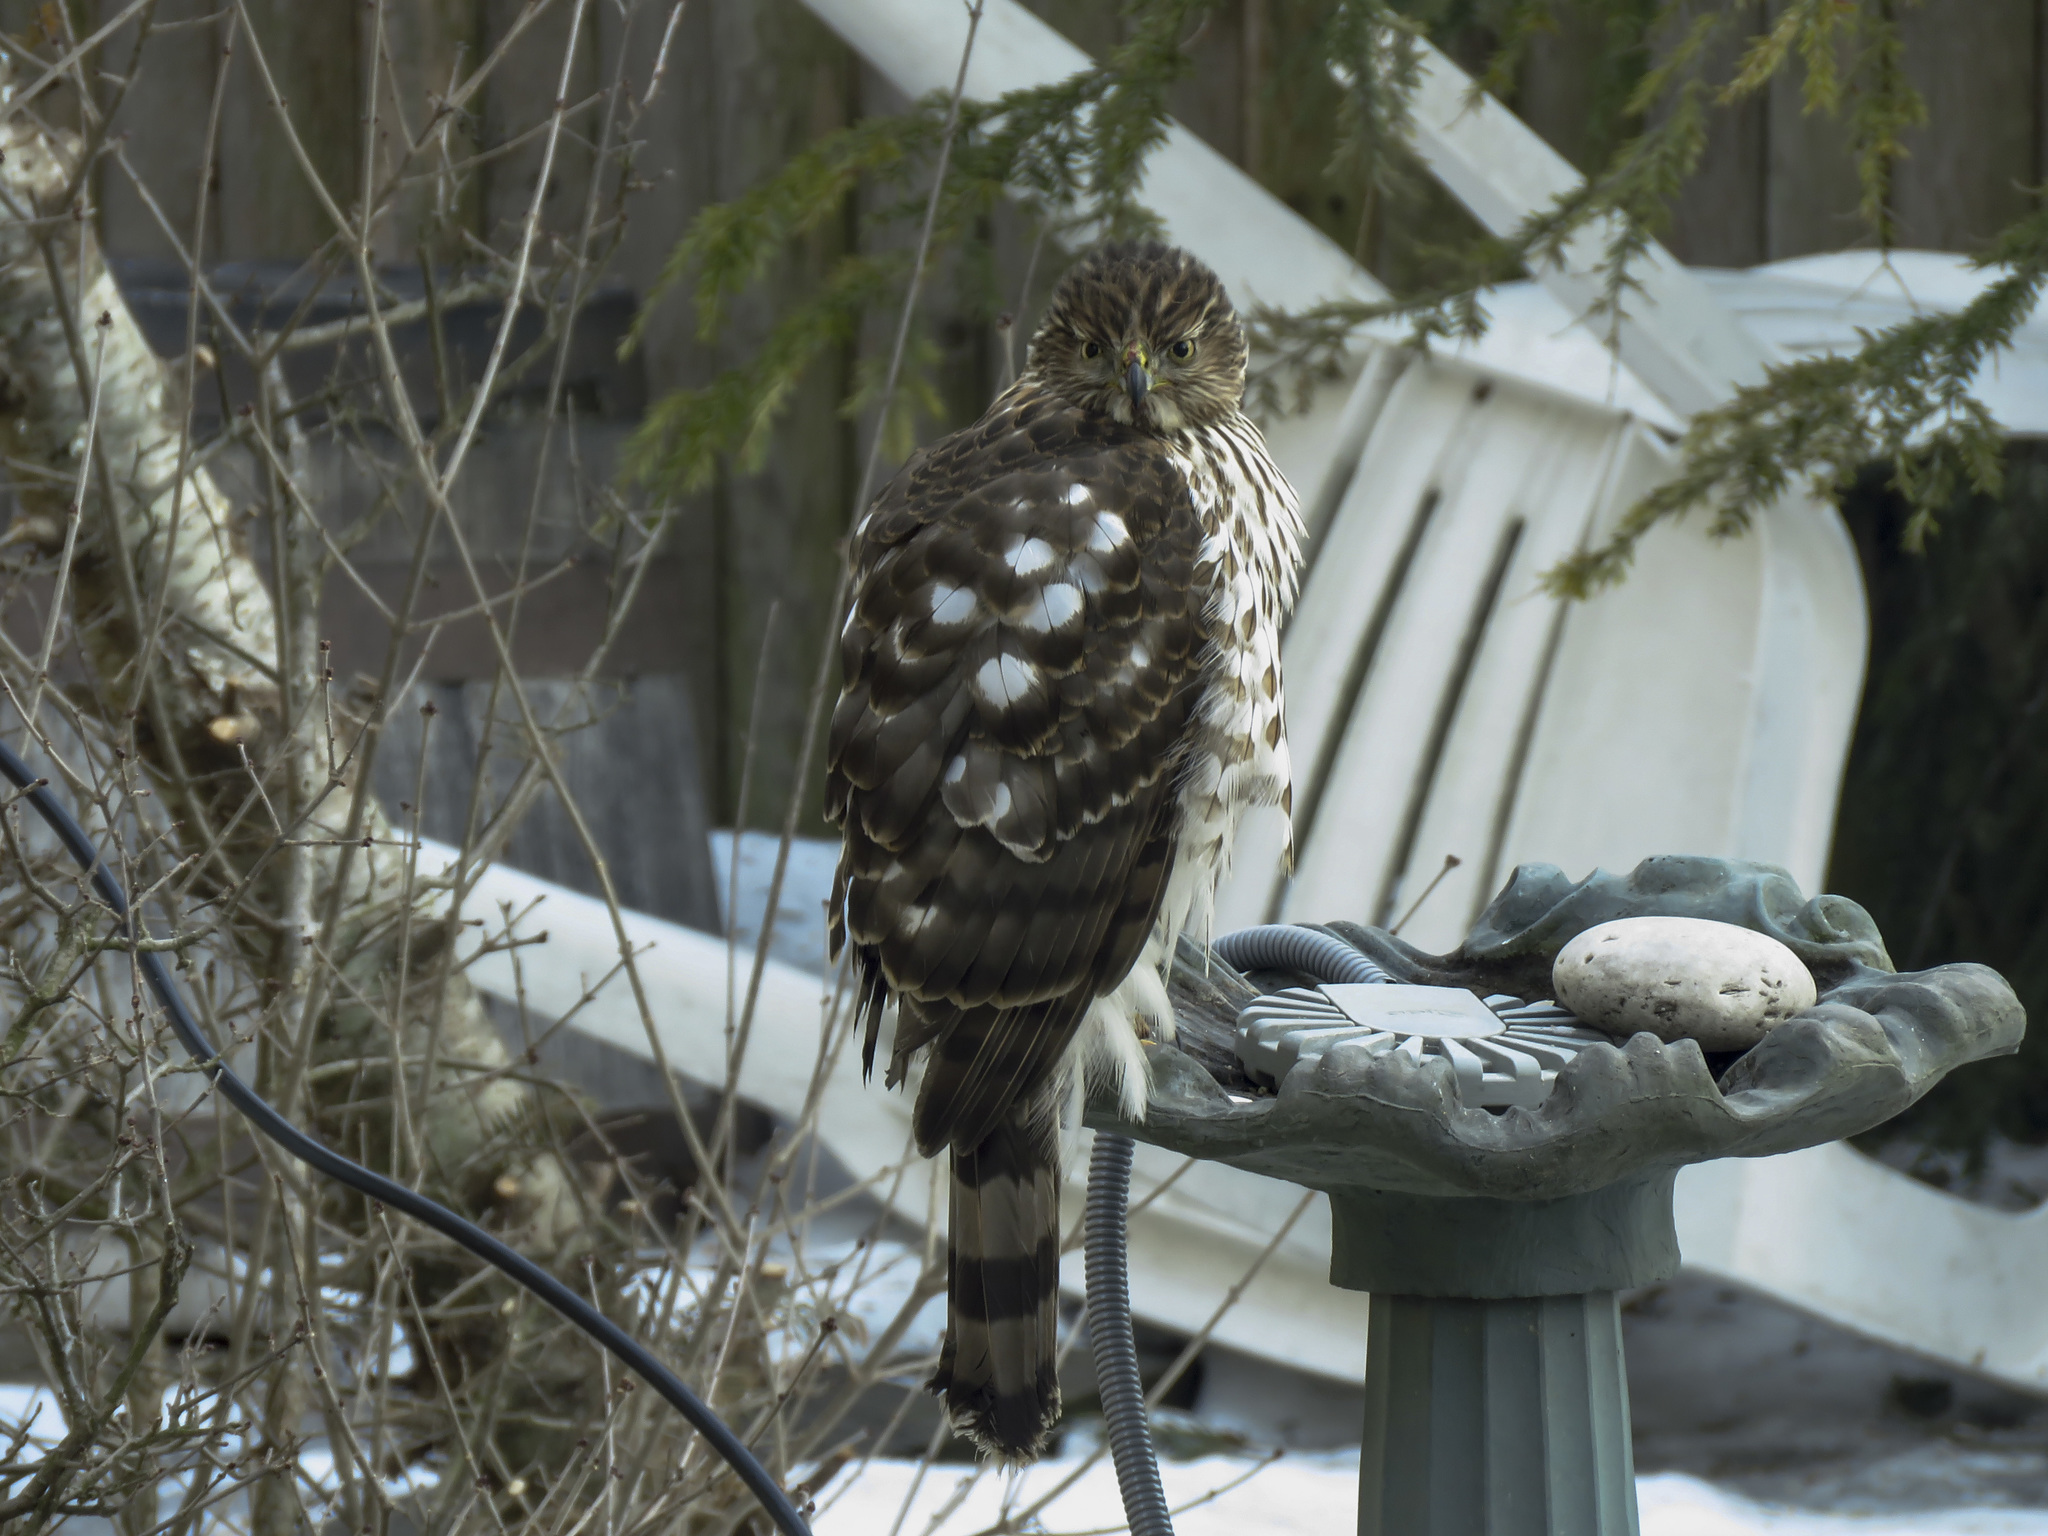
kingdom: Animalia
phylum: Chordata
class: Aves
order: Accipitriformes
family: Accipitridae
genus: Accipiter
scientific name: Accipiter cooperii
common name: Cooper's hawk
